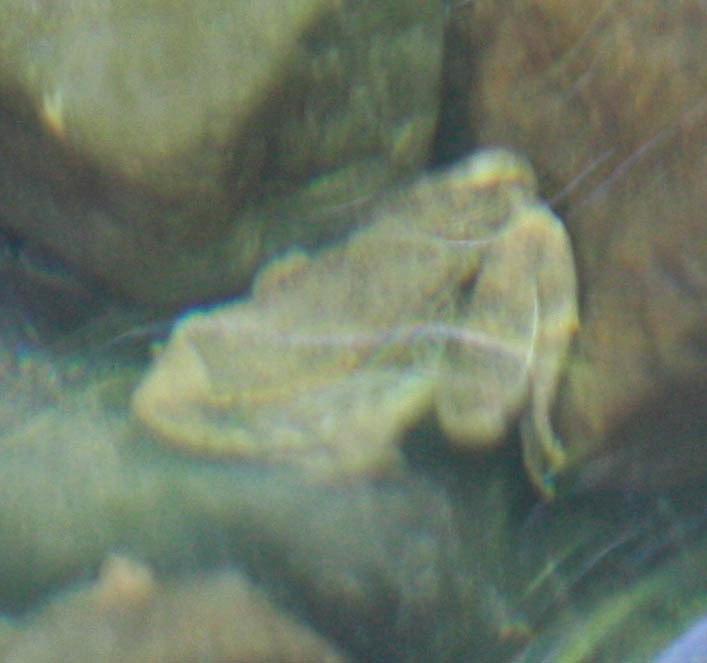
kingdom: Animalia
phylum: Chordata
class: Amphibia
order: Anura
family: Ranidae
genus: Rana
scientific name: Rana boylii
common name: Foothill yellow-legged frog
